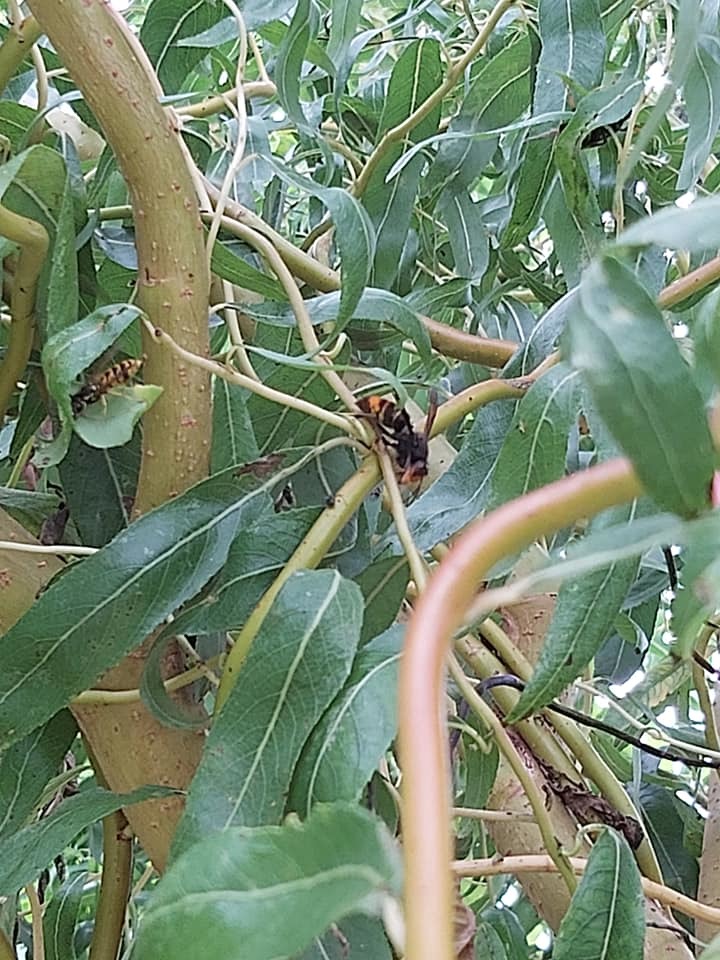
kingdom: Animalia
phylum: Arthropoda
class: Insecta
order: Hymenoptera
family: Vespidae
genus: Vespa
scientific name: Vespa velutina
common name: Asian hornet
